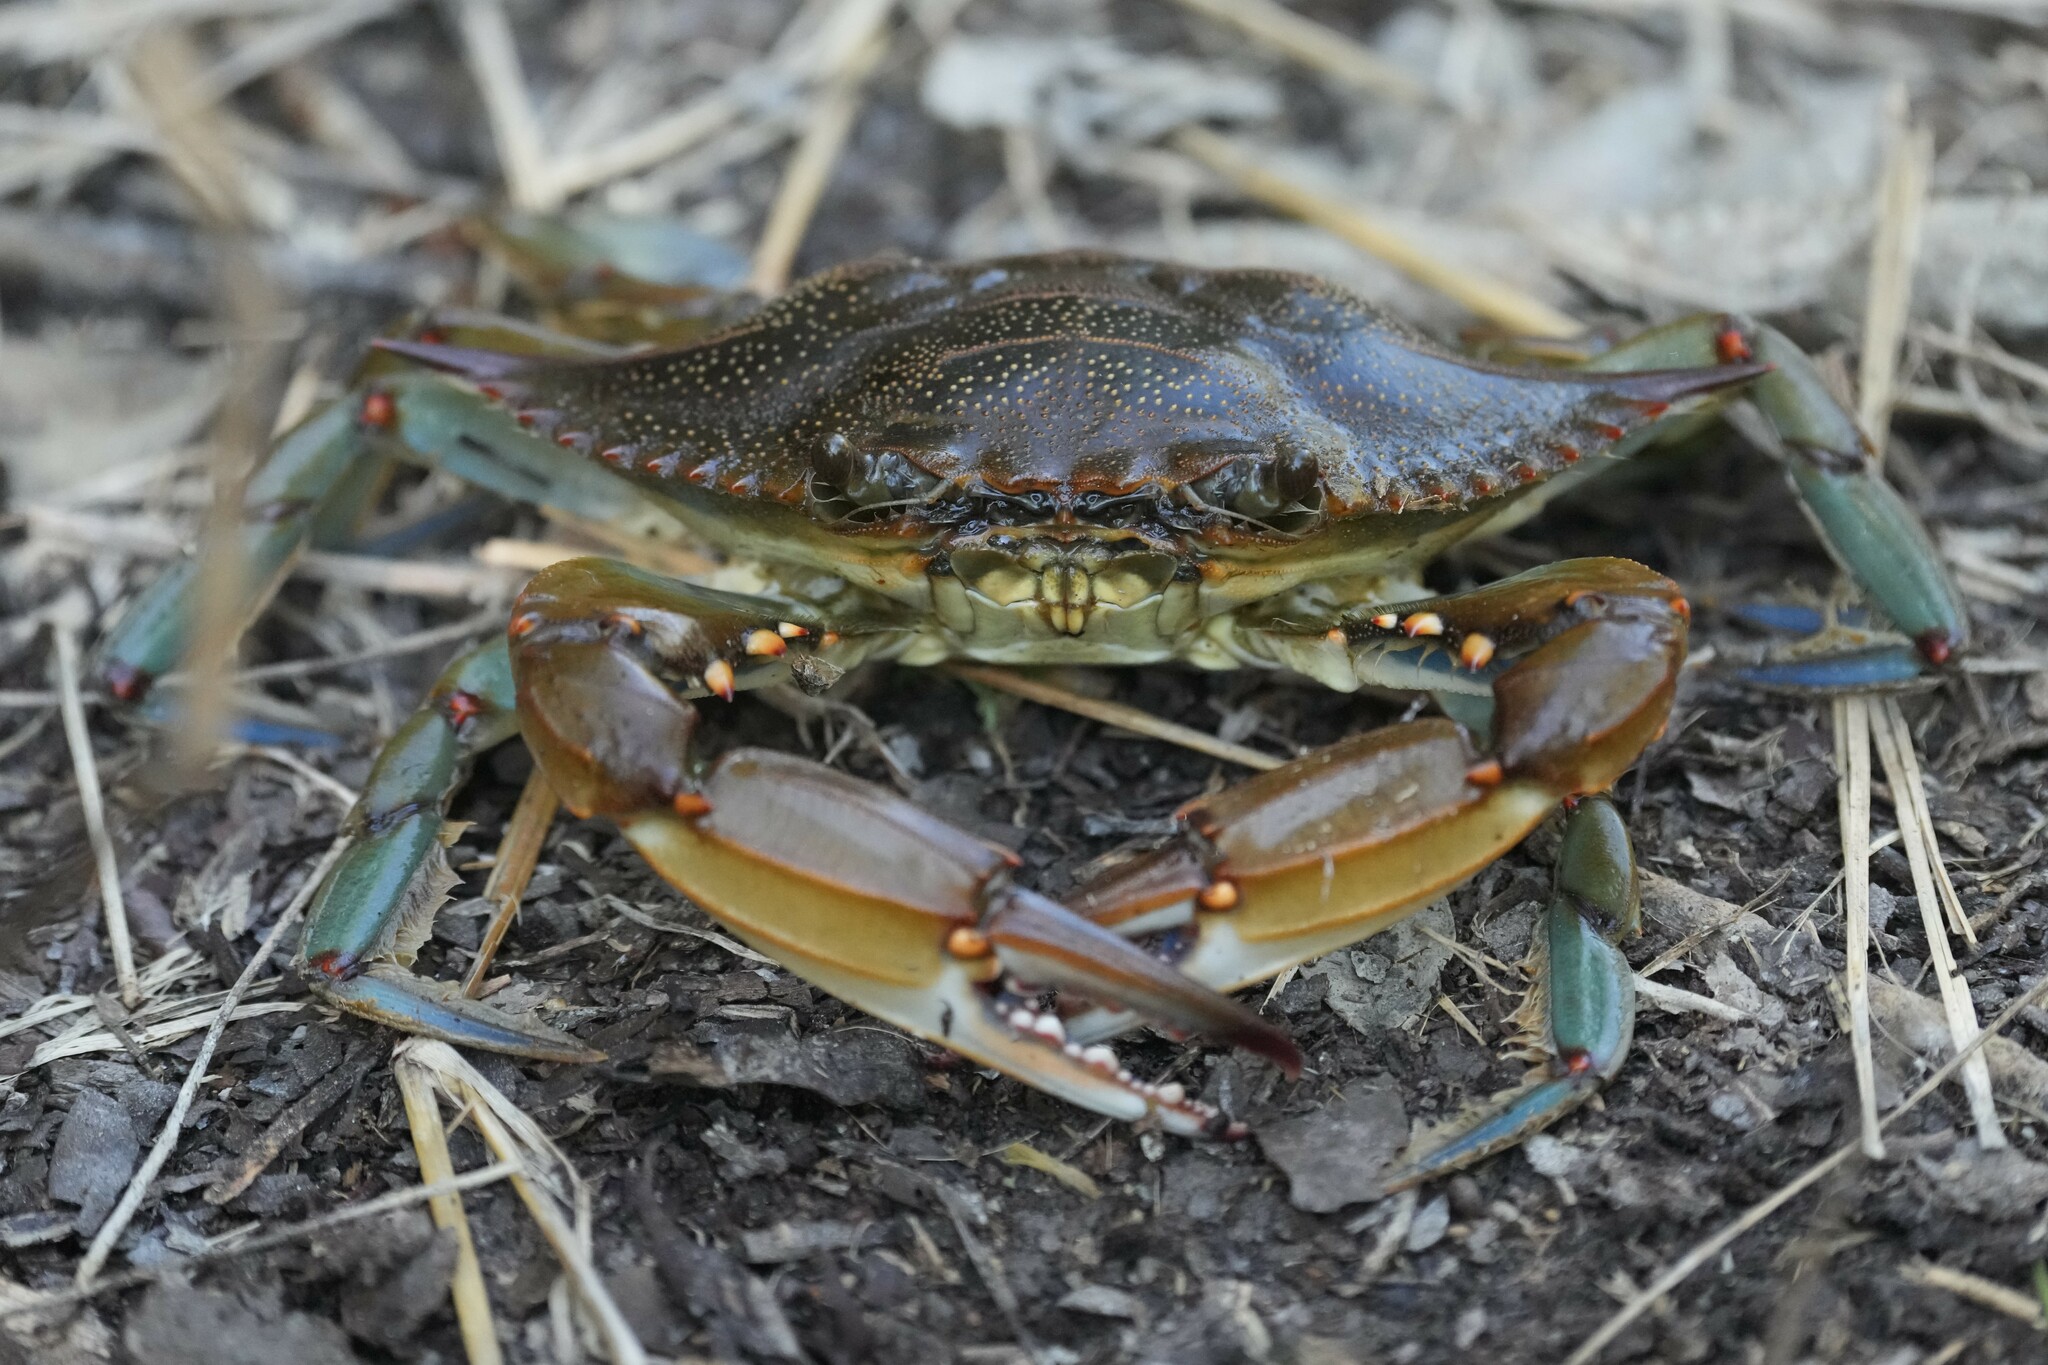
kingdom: Animalia
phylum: Arthropoda
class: Malacostraca
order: Decapoda
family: Portunidae
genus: Callinectes
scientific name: Callinectes sapidus
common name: Blue crab
